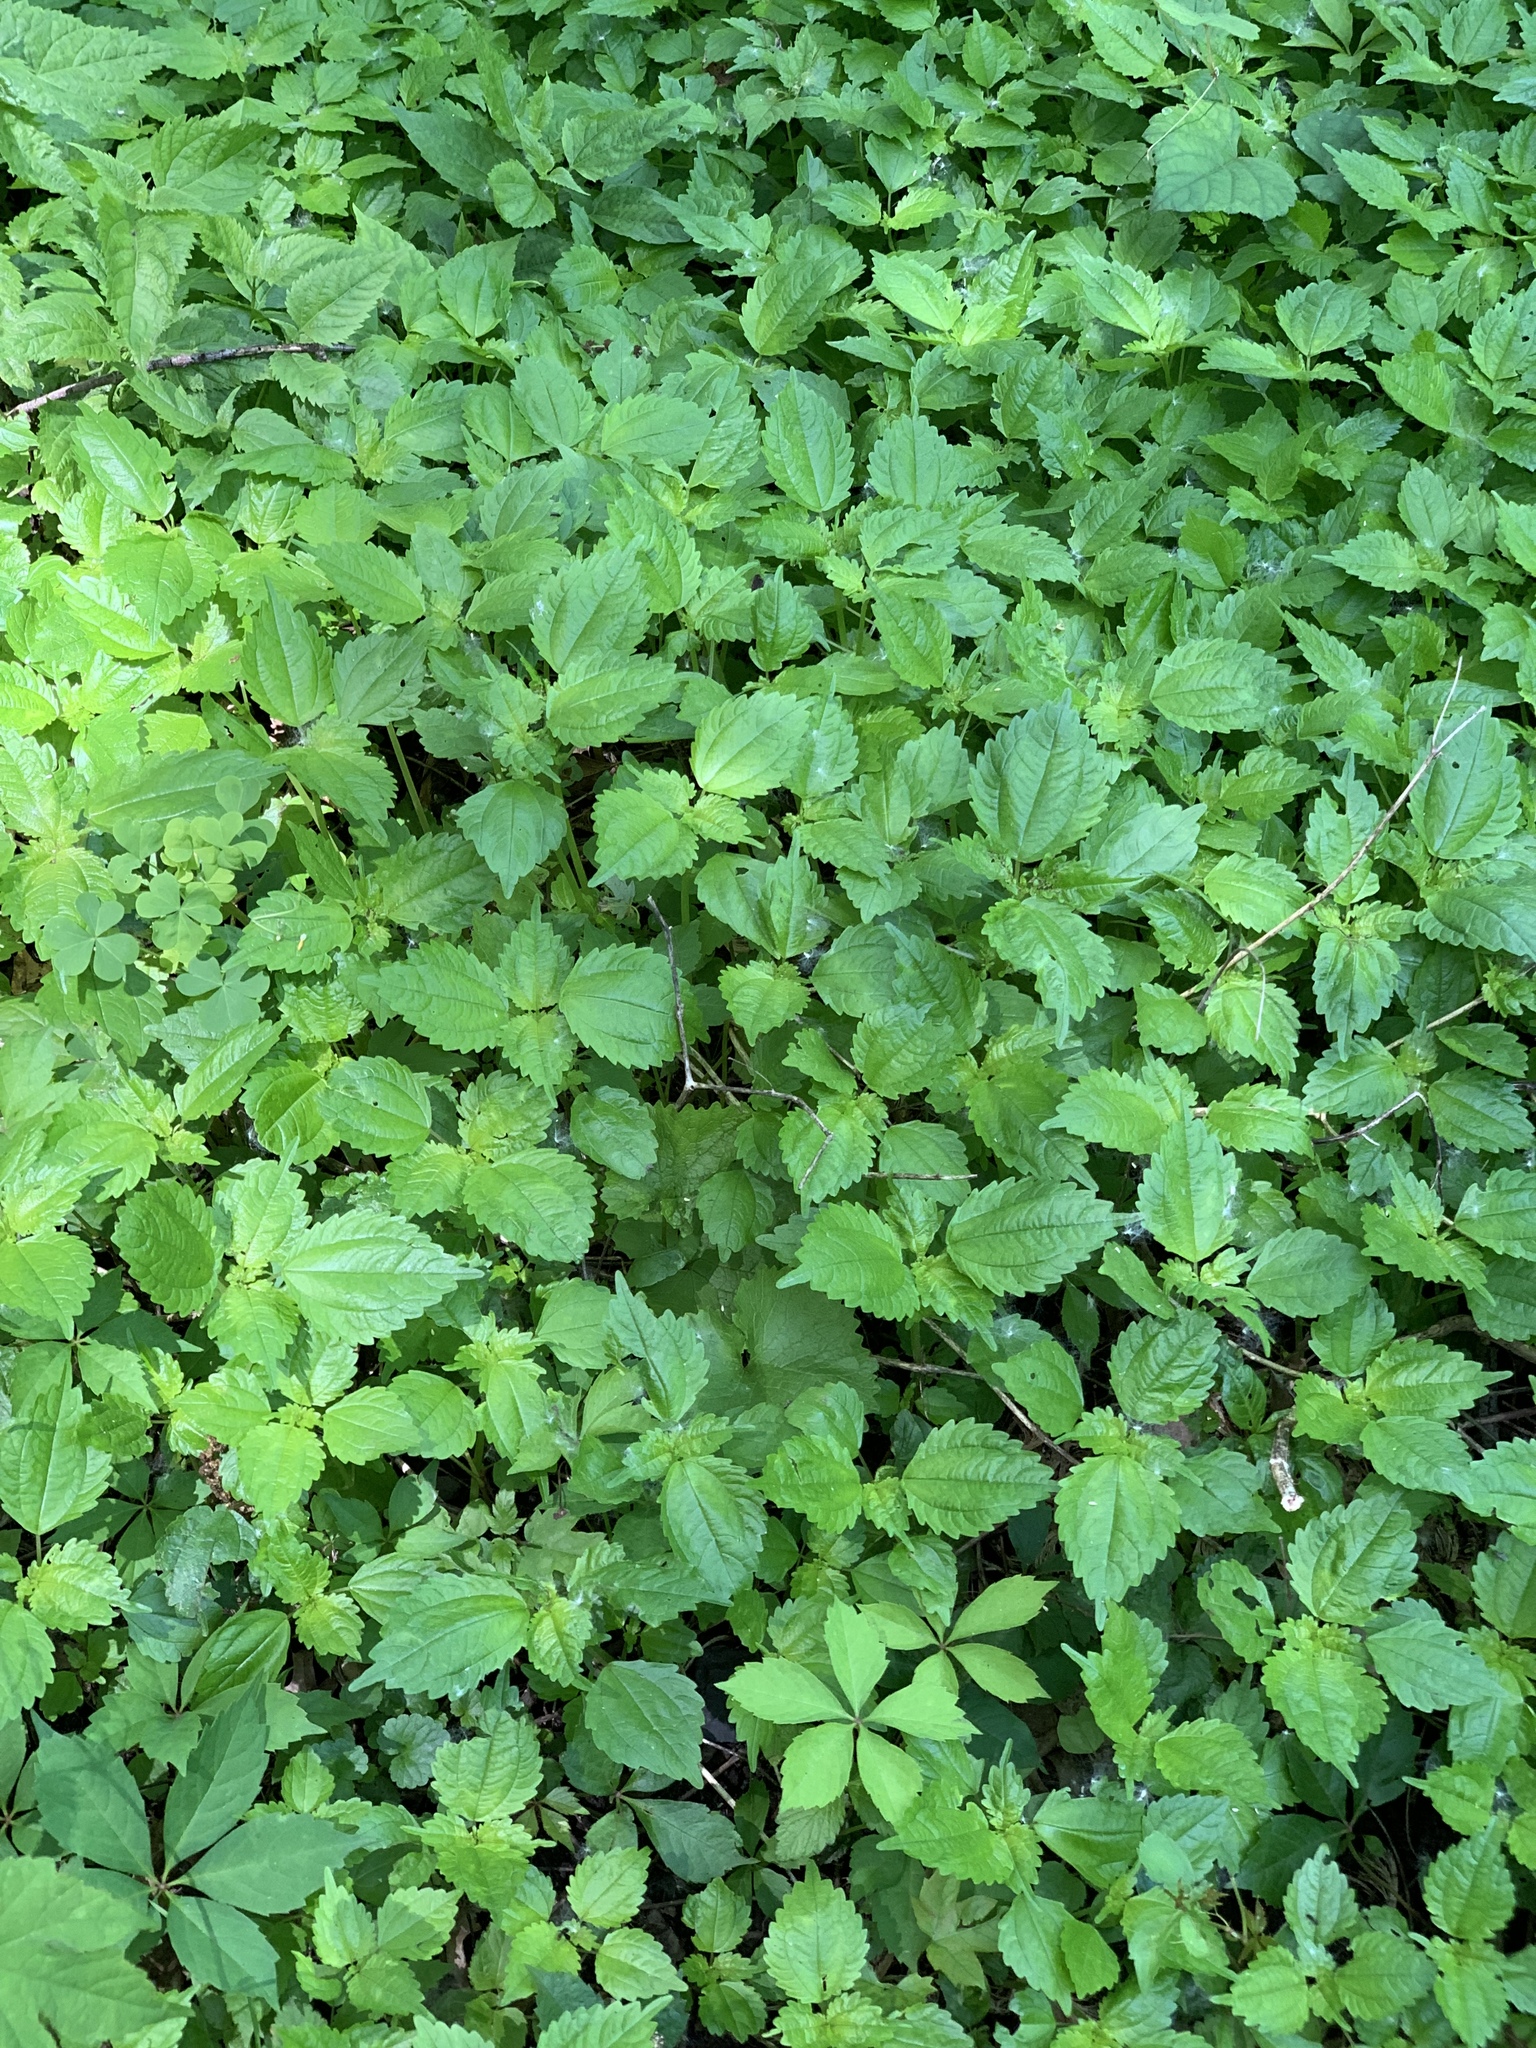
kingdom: Plantae
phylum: Tracheophyta
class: Magnoliopsida
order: Rosales
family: Urticaceae
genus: Pilea
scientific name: Pilea pumila
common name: Clearweed
